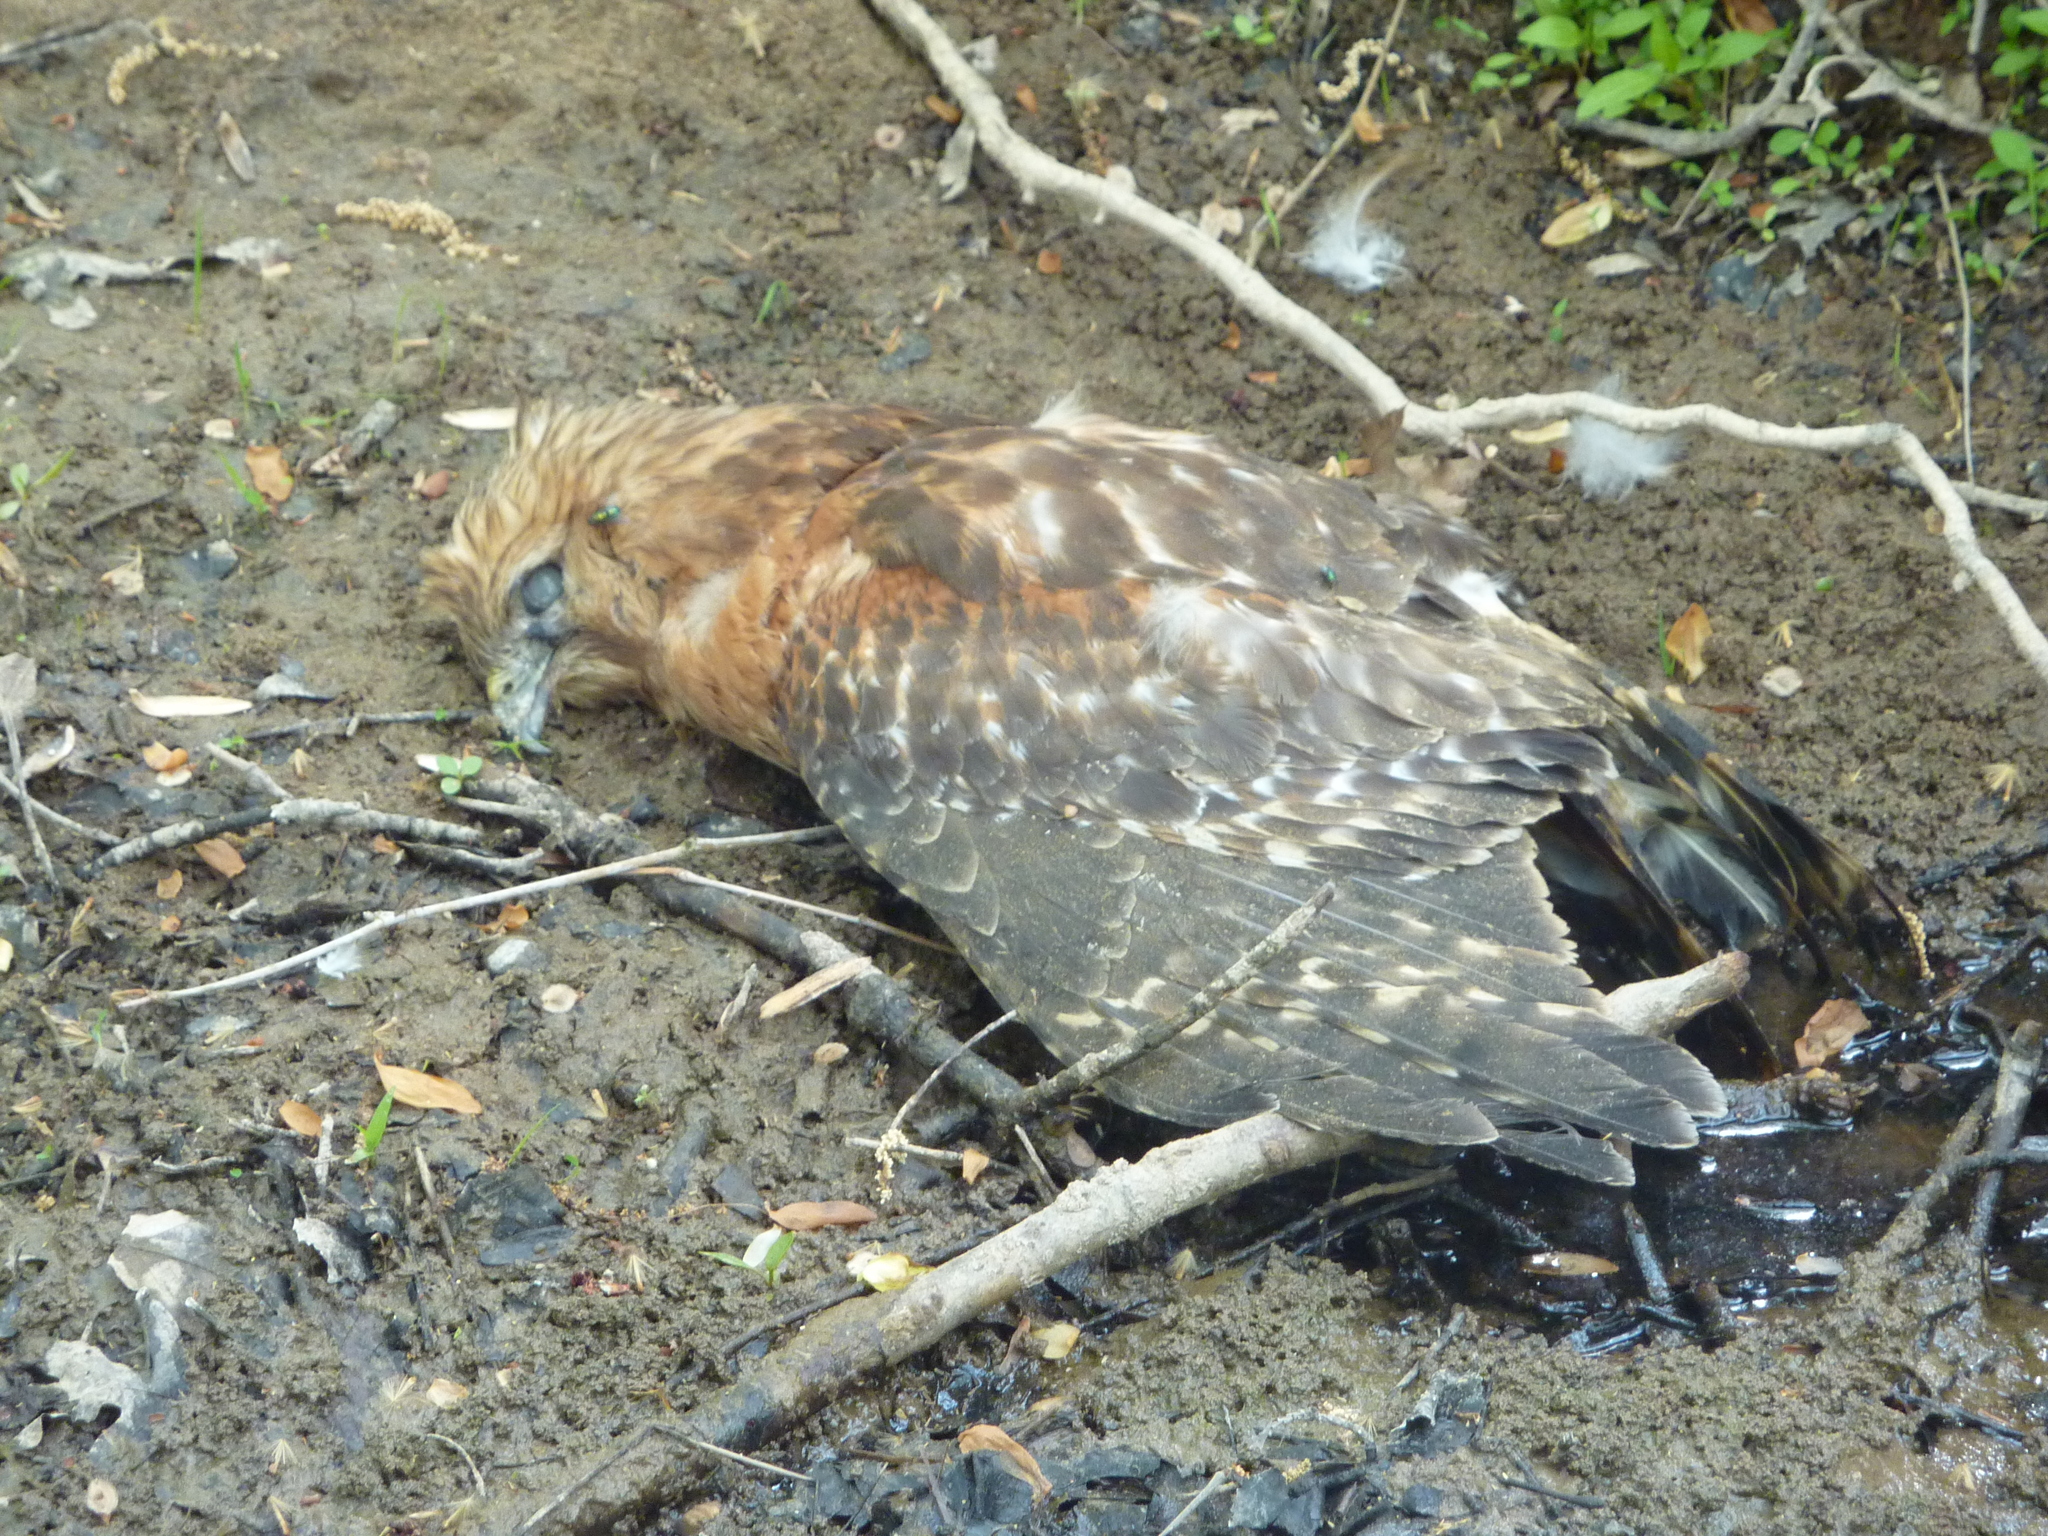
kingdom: Animalia
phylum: Chordata
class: Aves
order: Accipitriformes
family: Accipitridae
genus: Buteo
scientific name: Buteo lineatus
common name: Red-shouldered hawk
